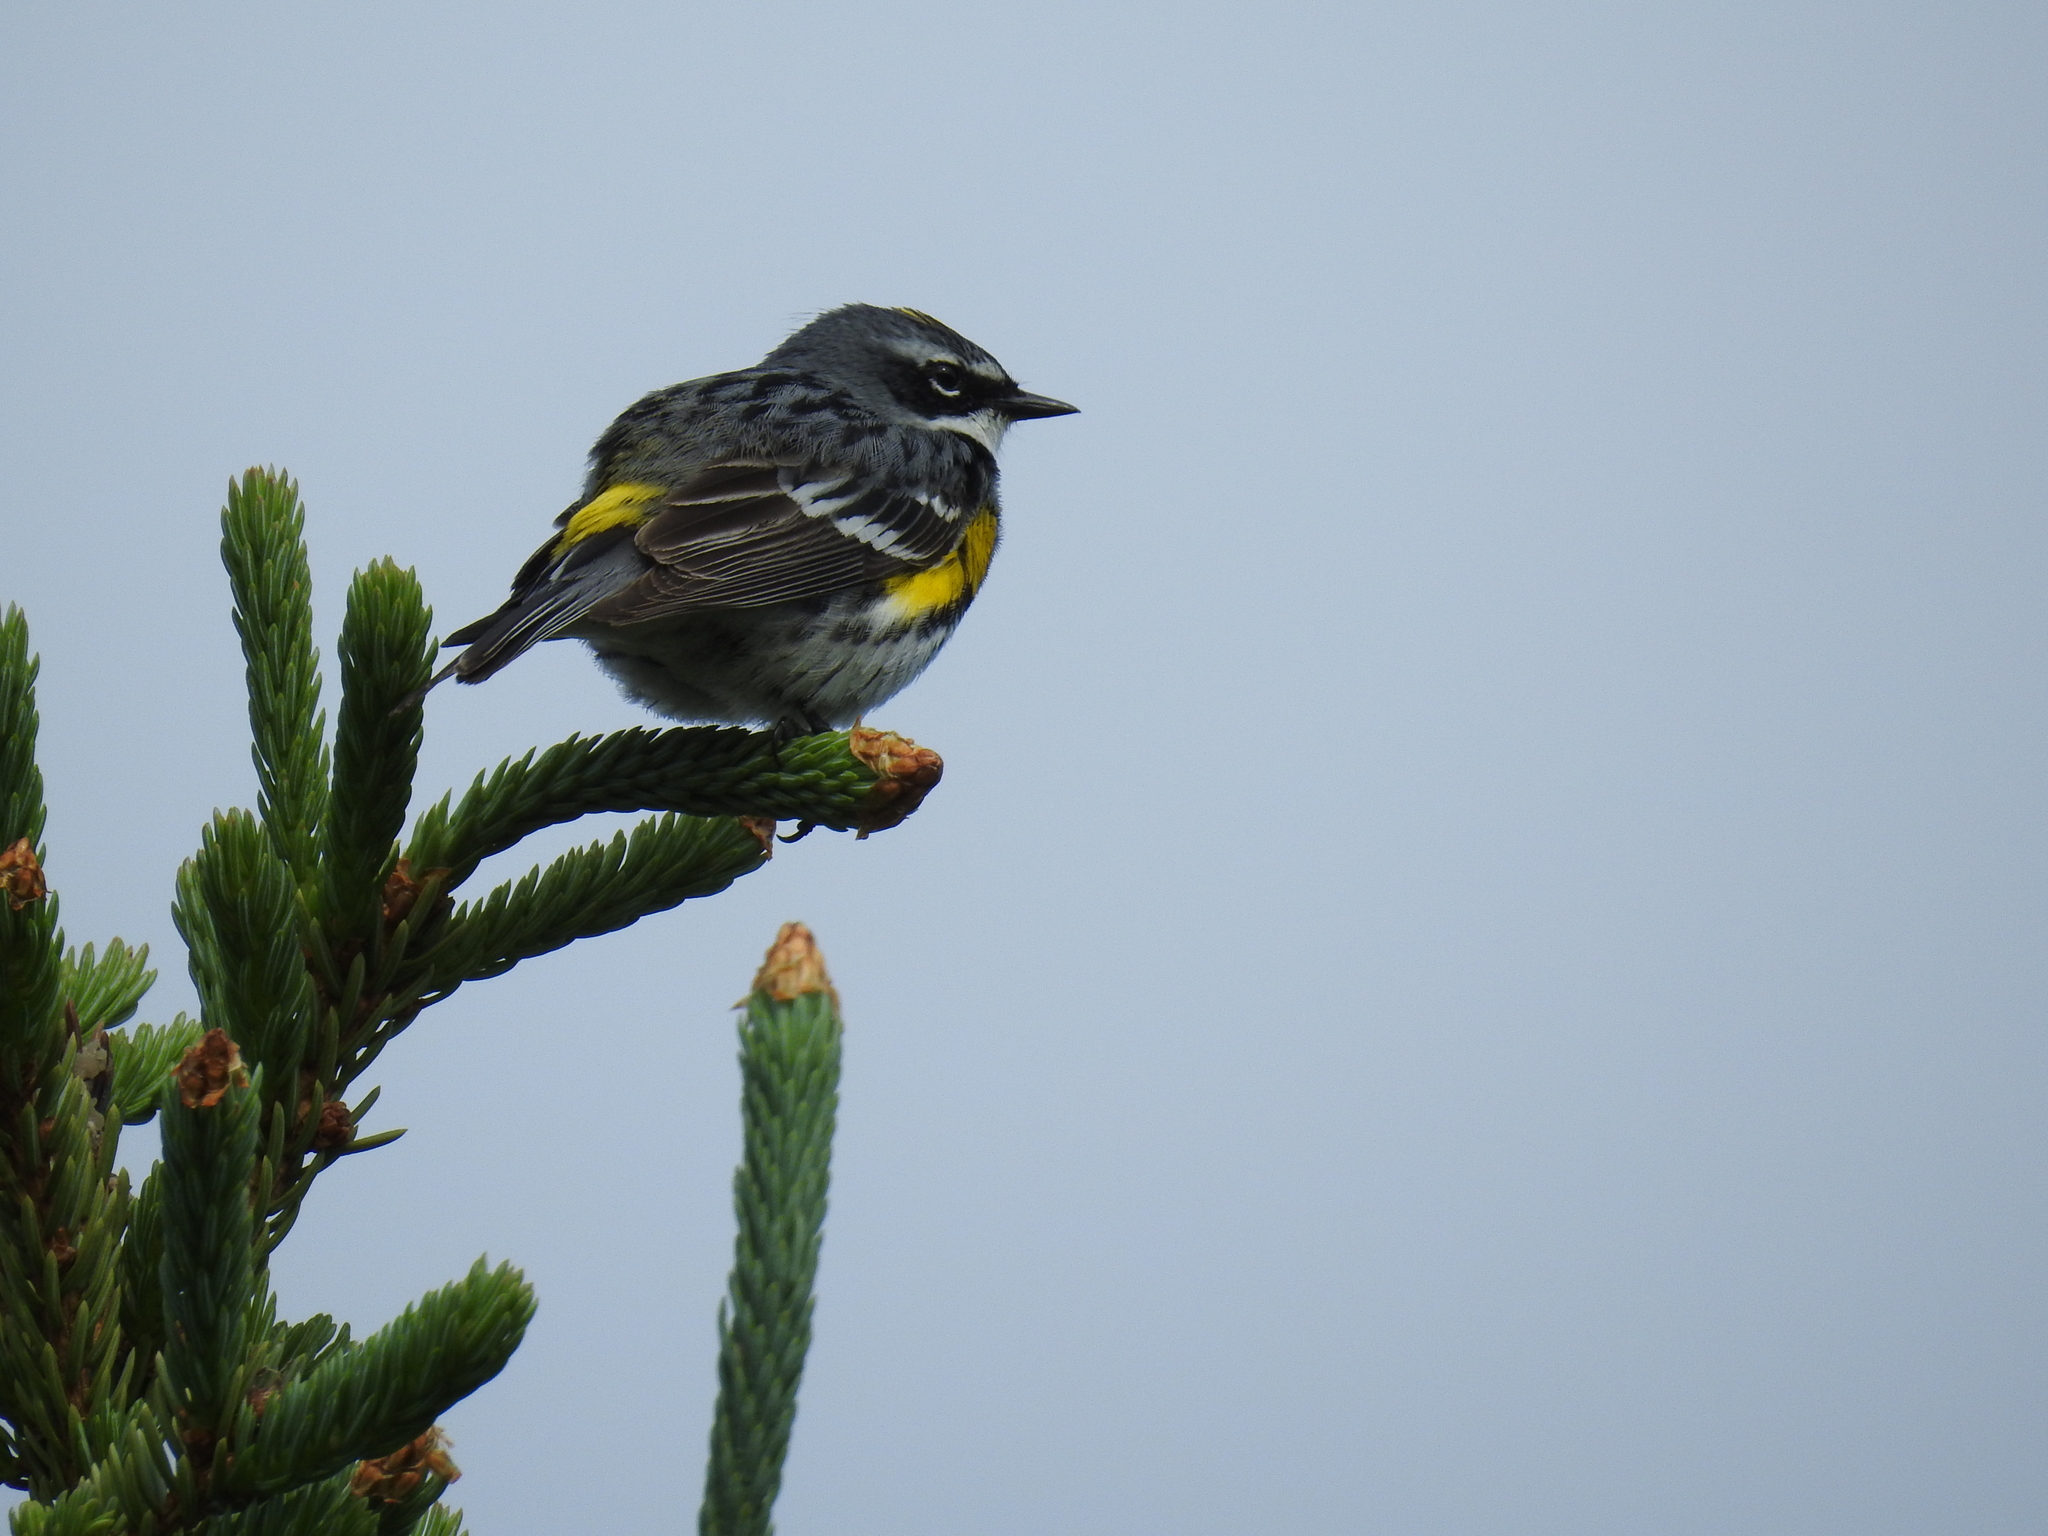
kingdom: Animalia
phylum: Chordata
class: Aves
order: Passeriformes
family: Parulidae
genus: Setophaga
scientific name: Setophaga coronata
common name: Myrtle warbler
